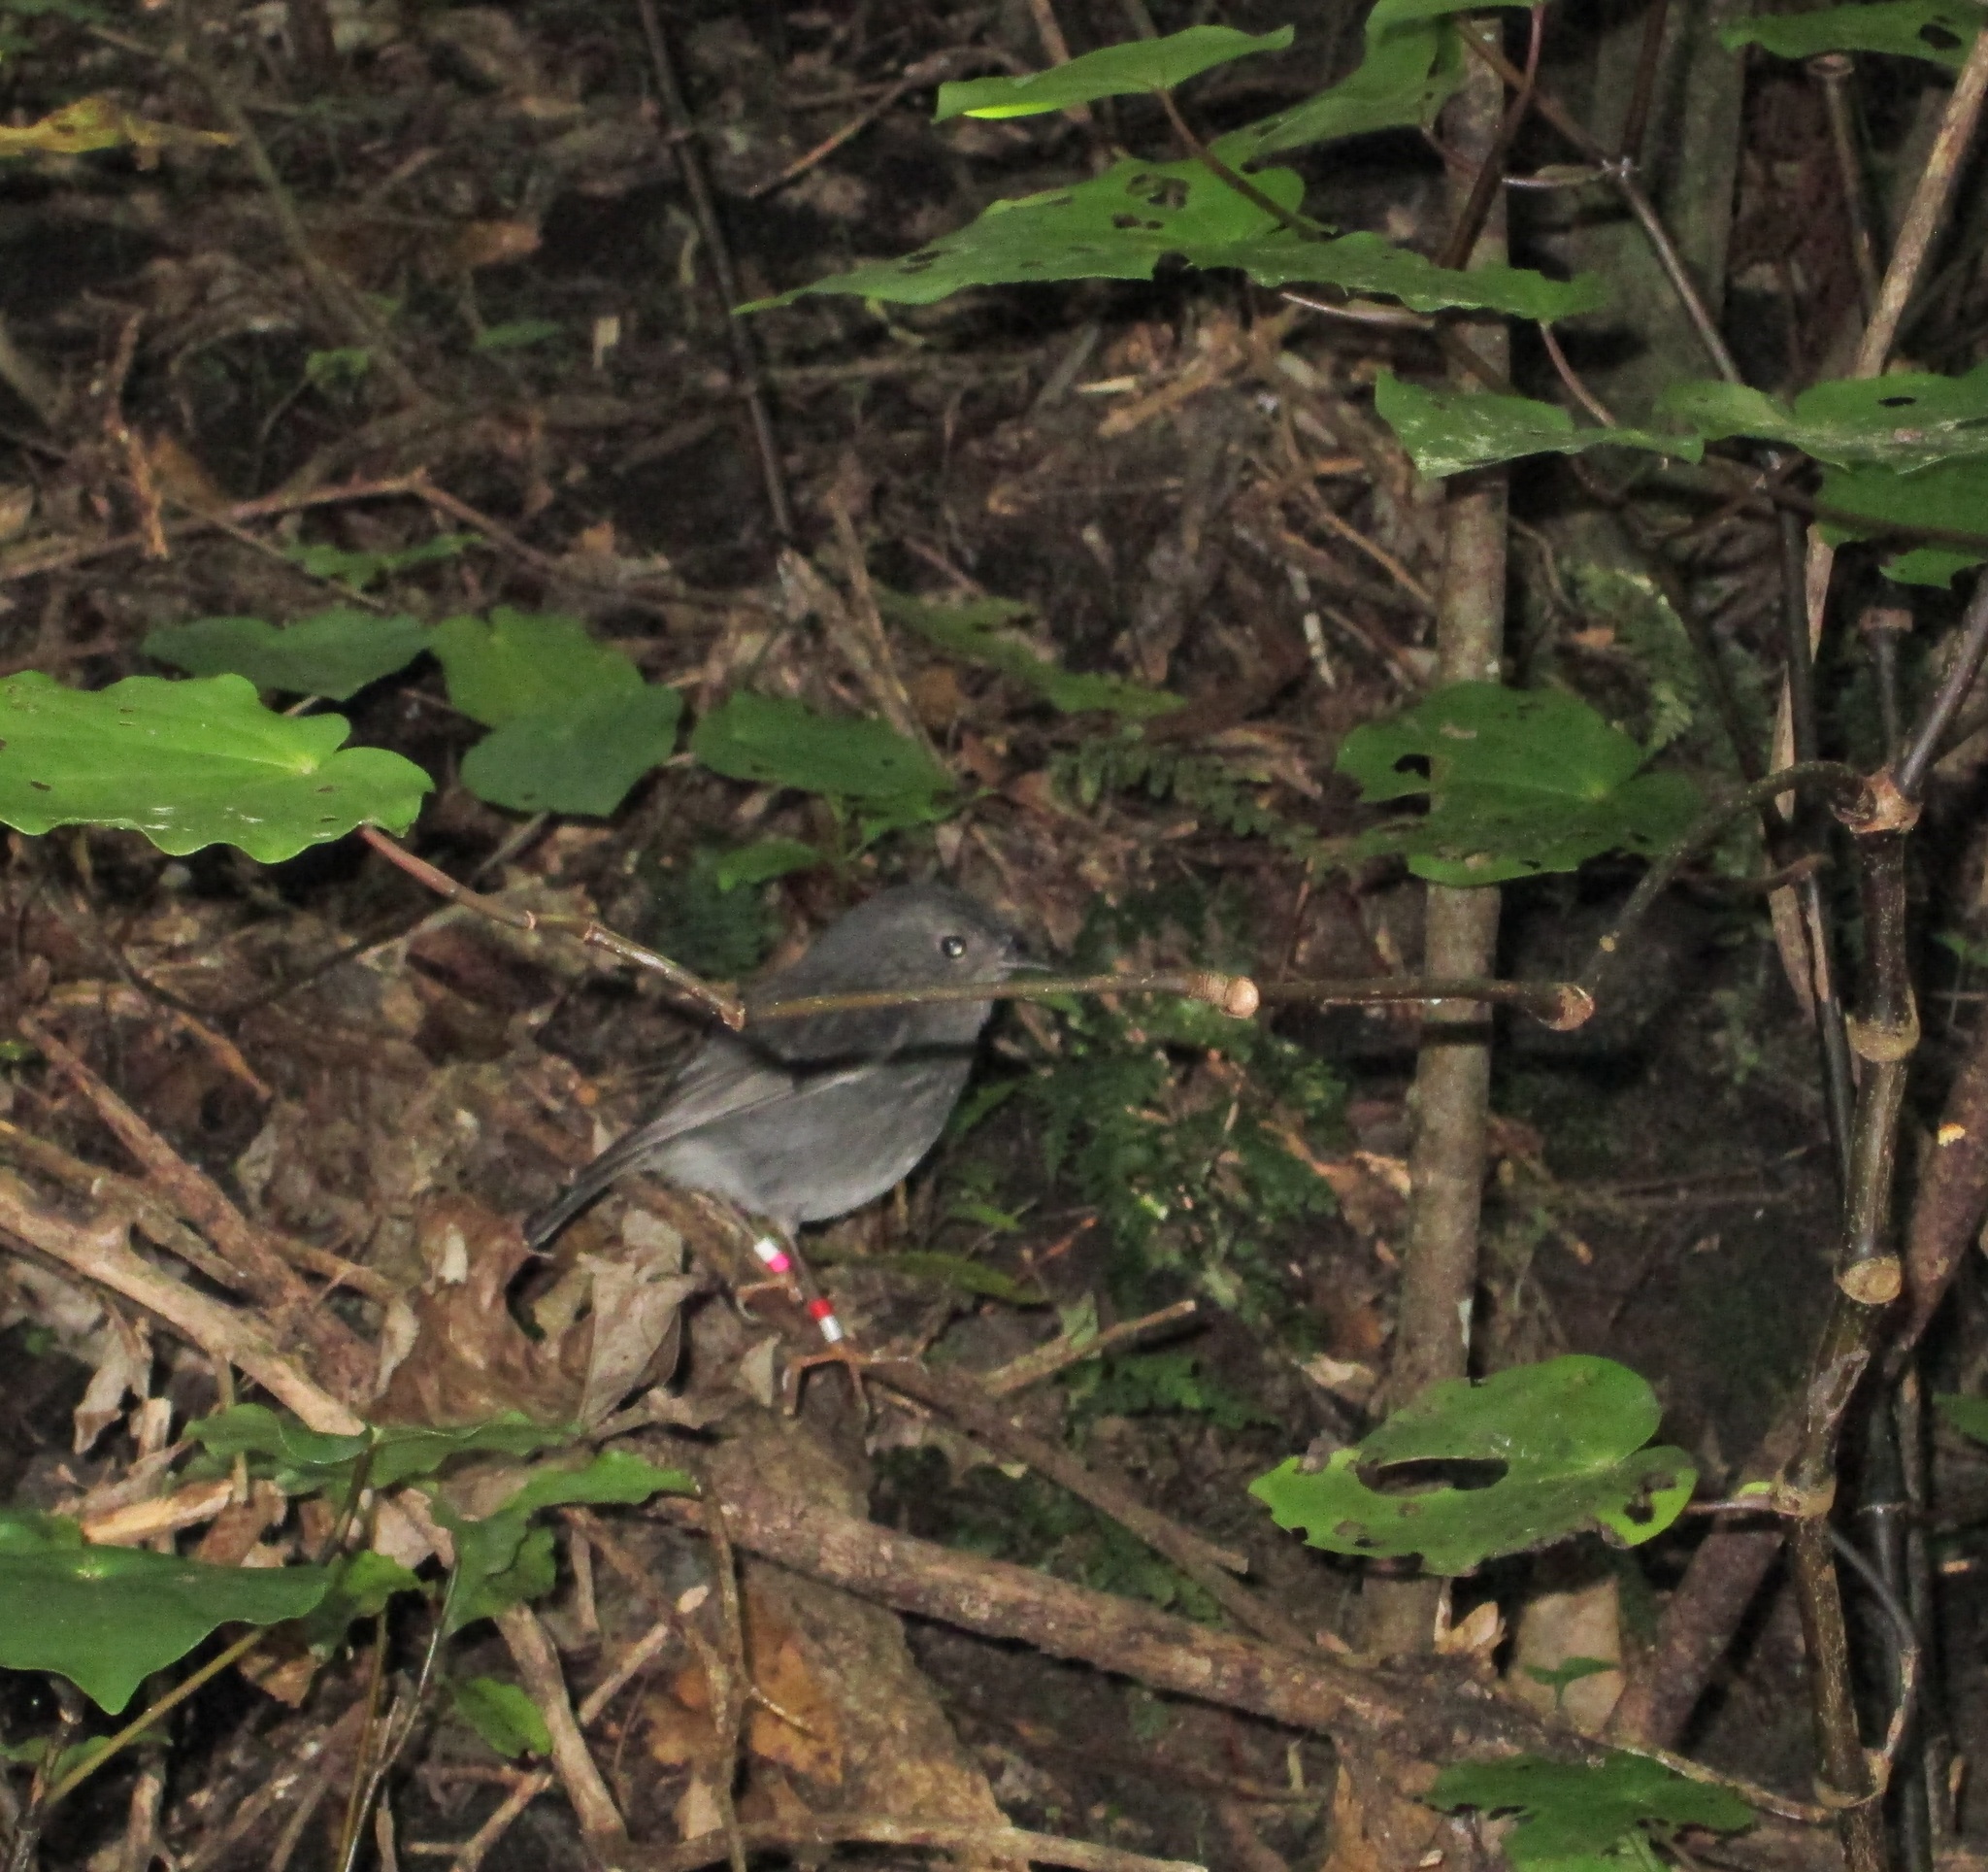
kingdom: Animalia
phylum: Chordata
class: Aves
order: Passeriformes
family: Petroicidae
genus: Petroica
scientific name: Petroica australis
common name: New zealand robin
